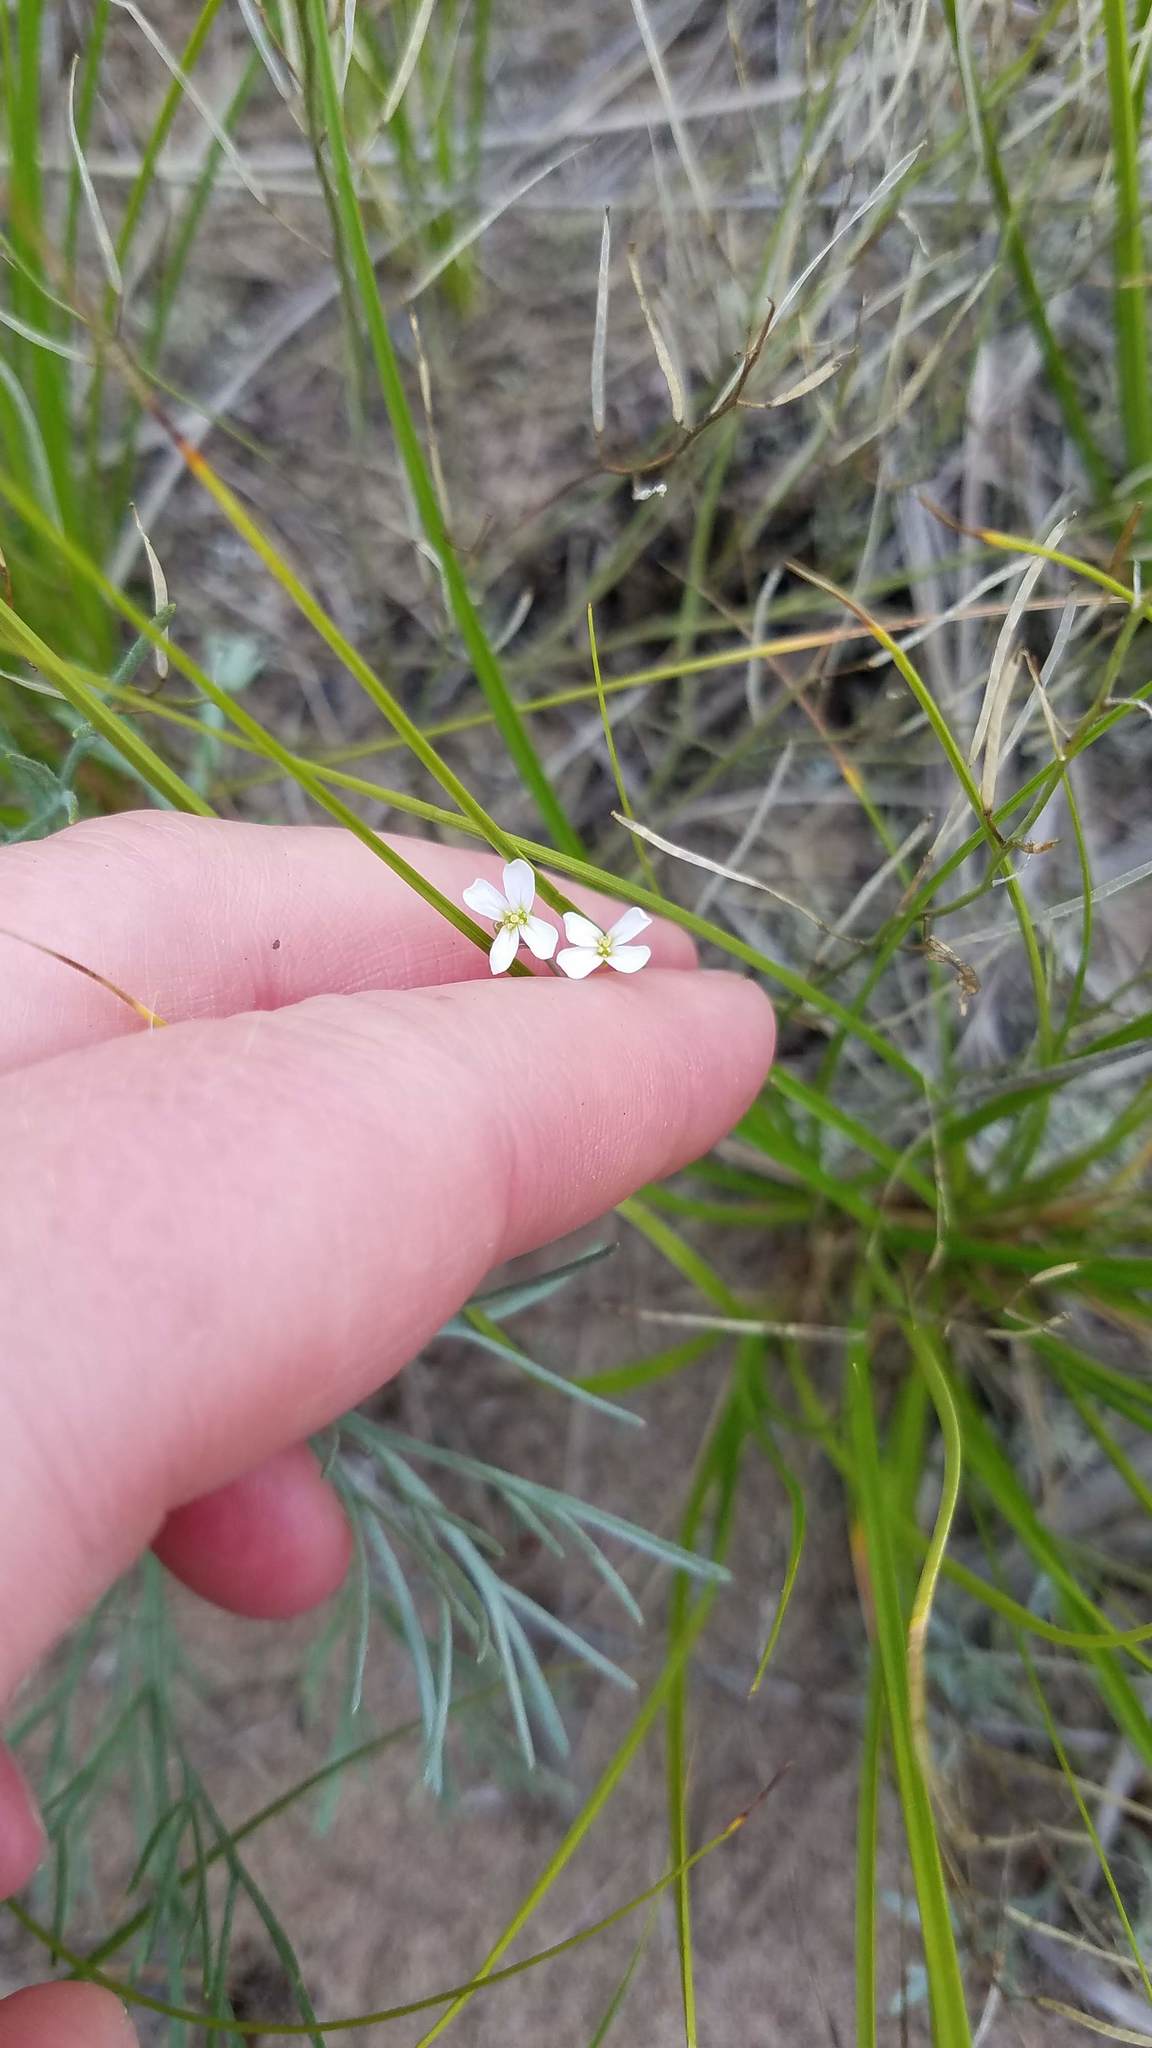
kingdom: Plantae
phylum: Tracheophyta
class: Magnoliopsida
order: Brassicales
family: Brassicaceae
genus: Arabidopsis
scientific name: Arabidopsis lyrata
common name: Lyrate rockcress
